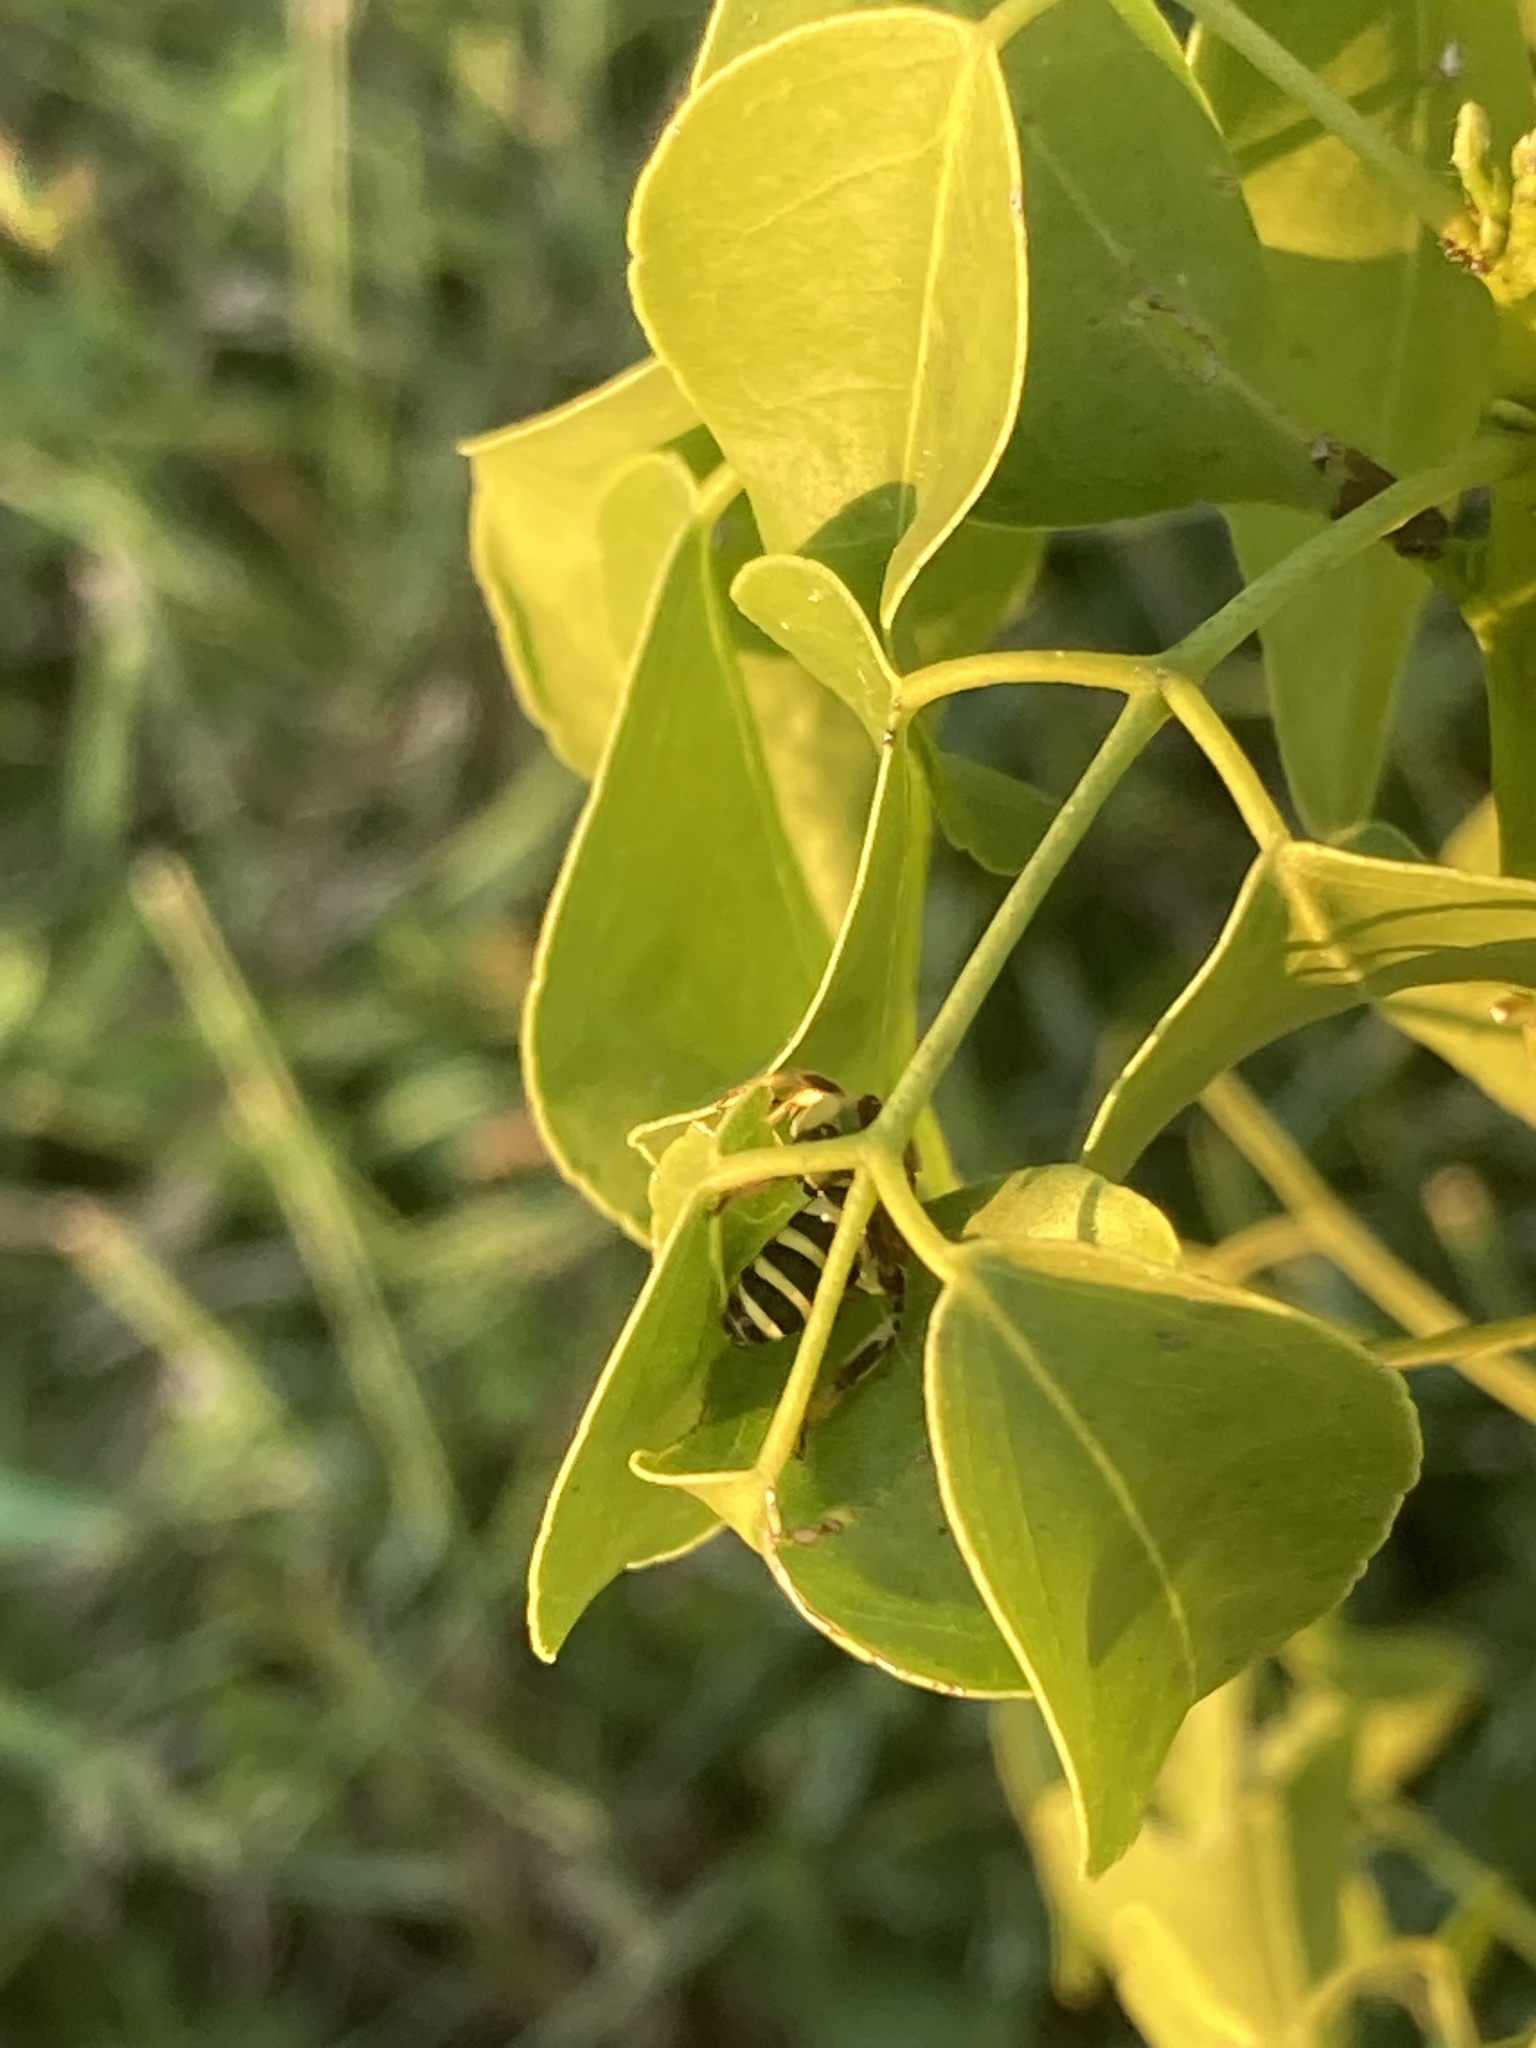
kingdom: Animalia
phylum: Arthropoda
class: Insecta
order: Hymenoptera
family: Halictidae
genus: Agapostemon
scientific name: Agapostemon splendens
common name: Brown-winged striped sweat bee
